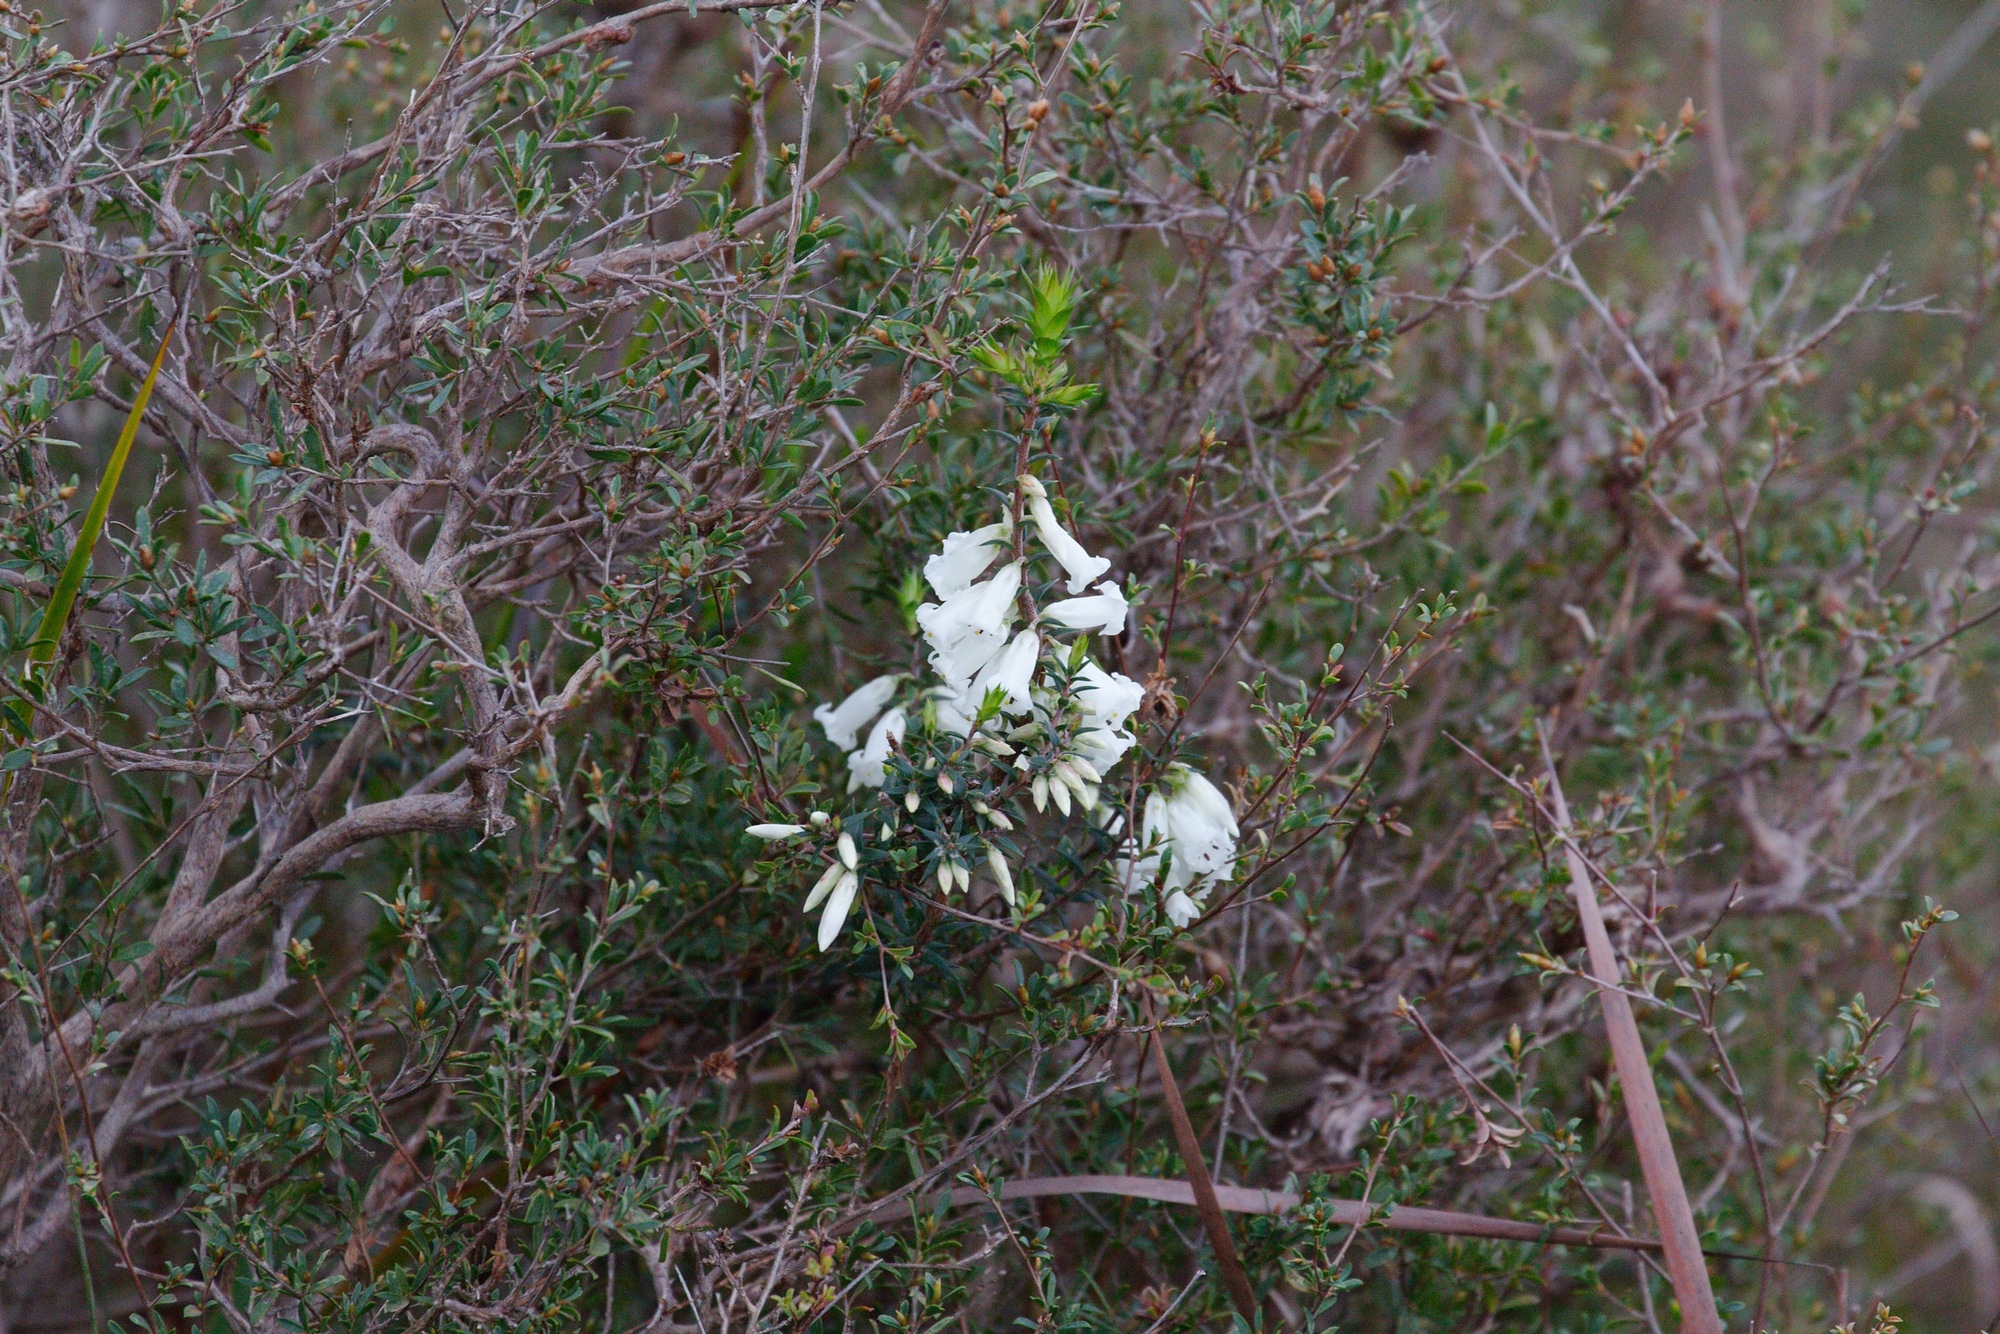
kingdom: Plantae
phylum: Tracheophyta
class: Magnoliopsida
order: Ericales
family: Ericaceae
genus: Epacris
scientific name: Epacris impressa
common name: Common-heath
